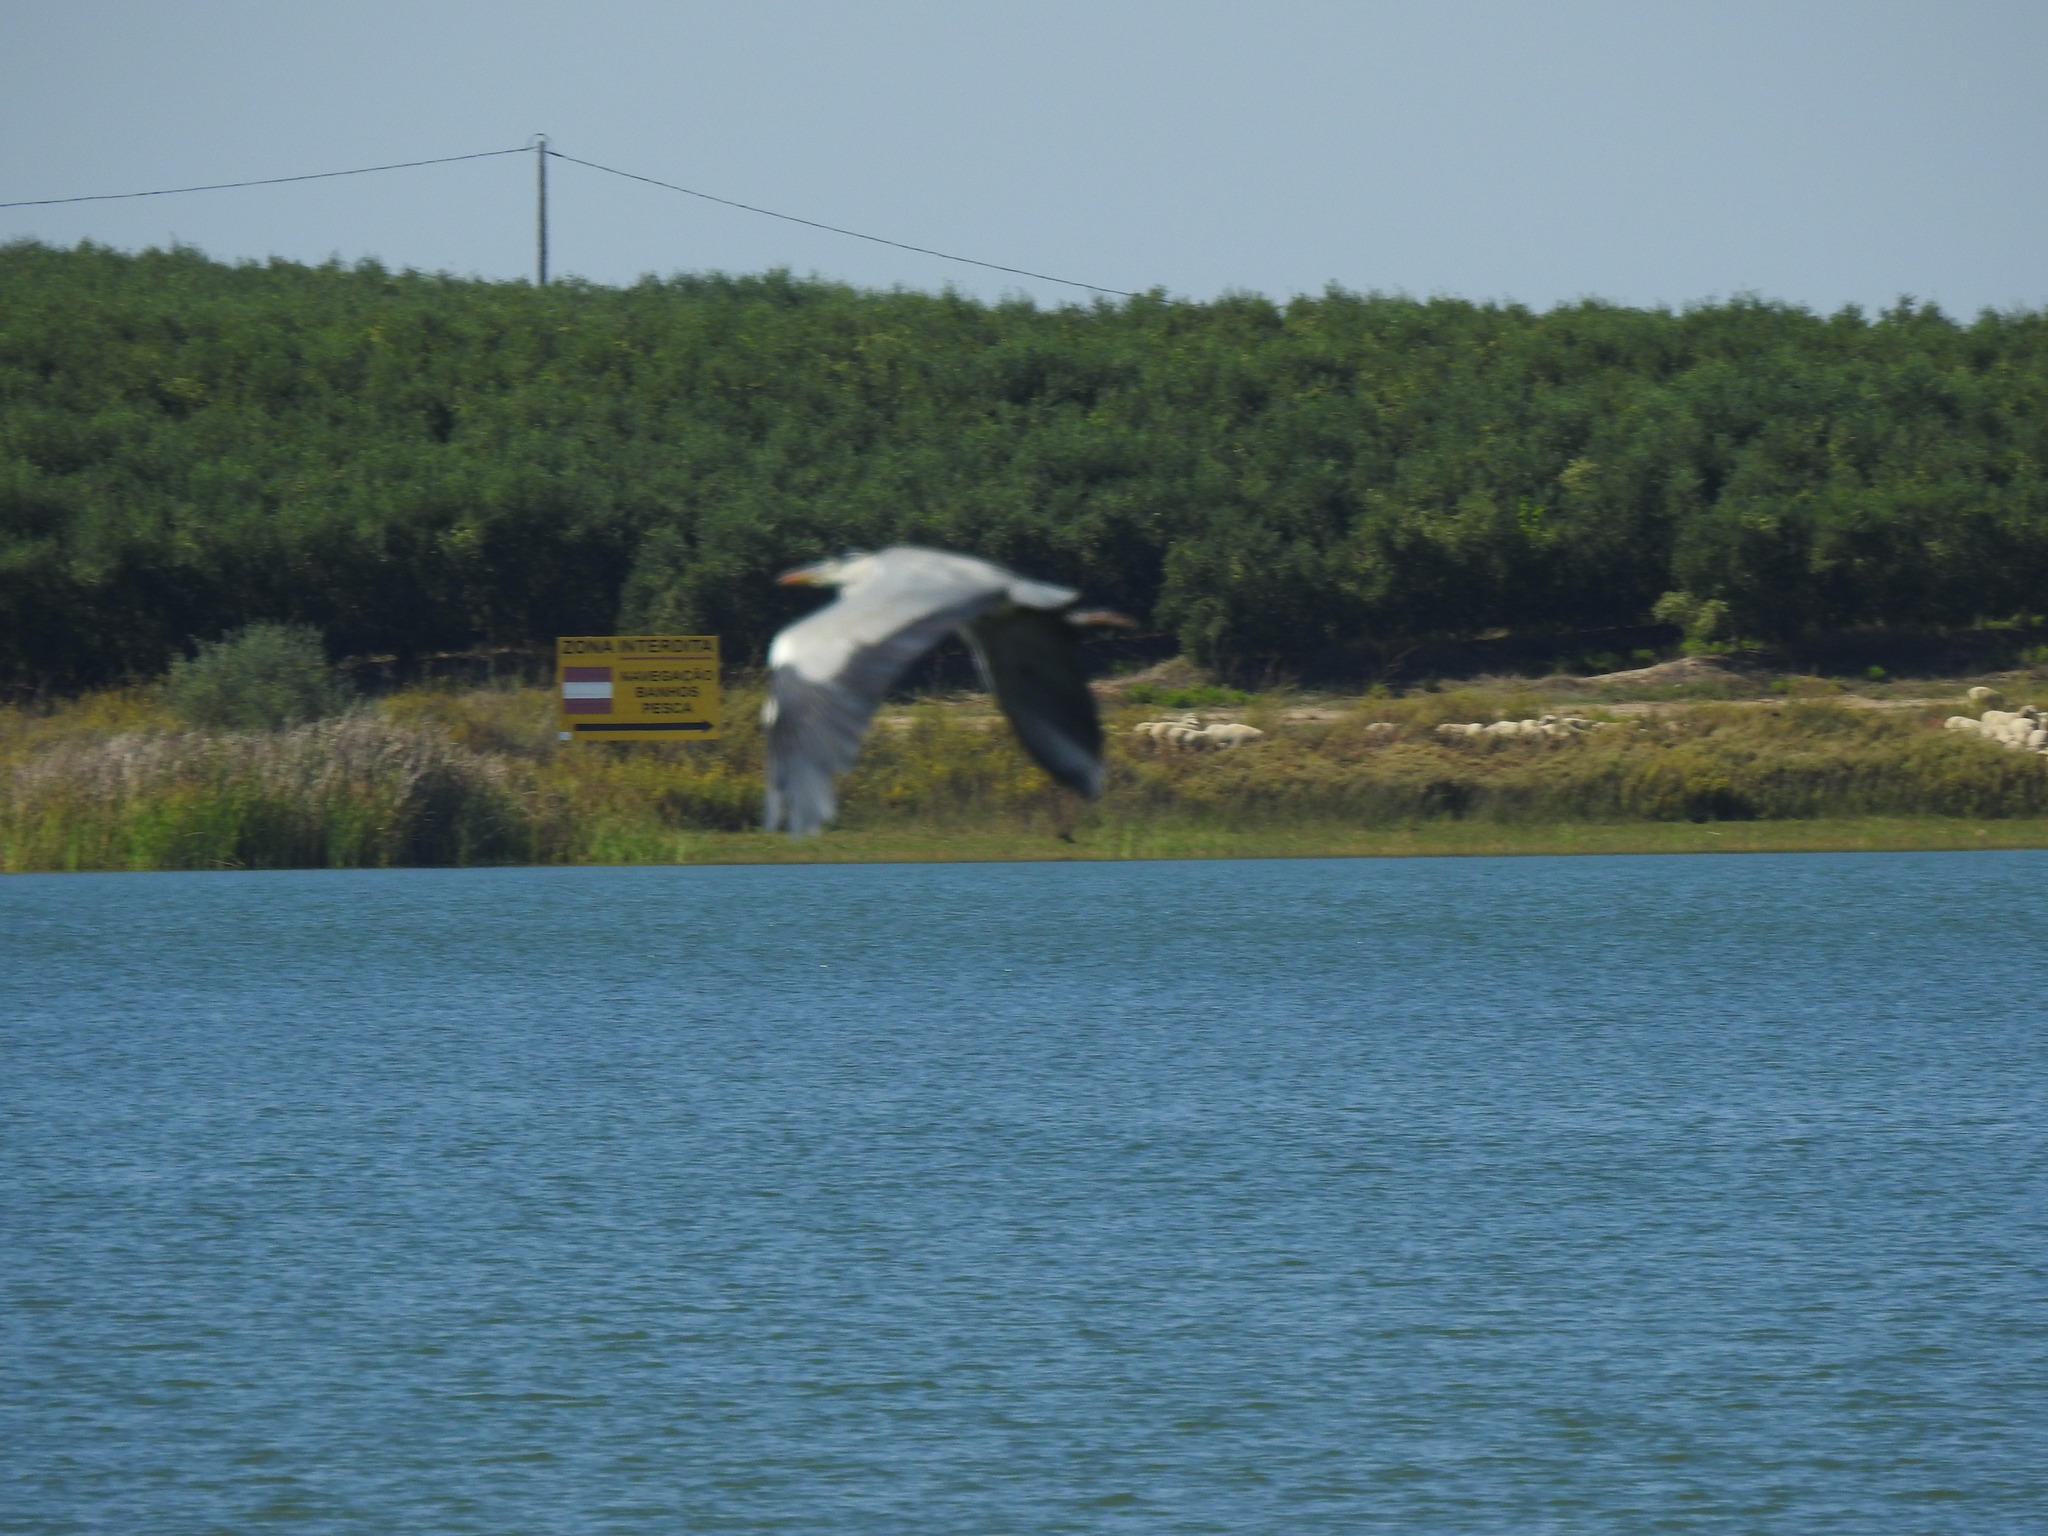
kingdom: Animalia
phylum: Chordata
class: Aves
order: Pelecaniformes
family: Ardeidae
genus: Ardea
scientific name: Ardea cinerea
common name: Grey heron
